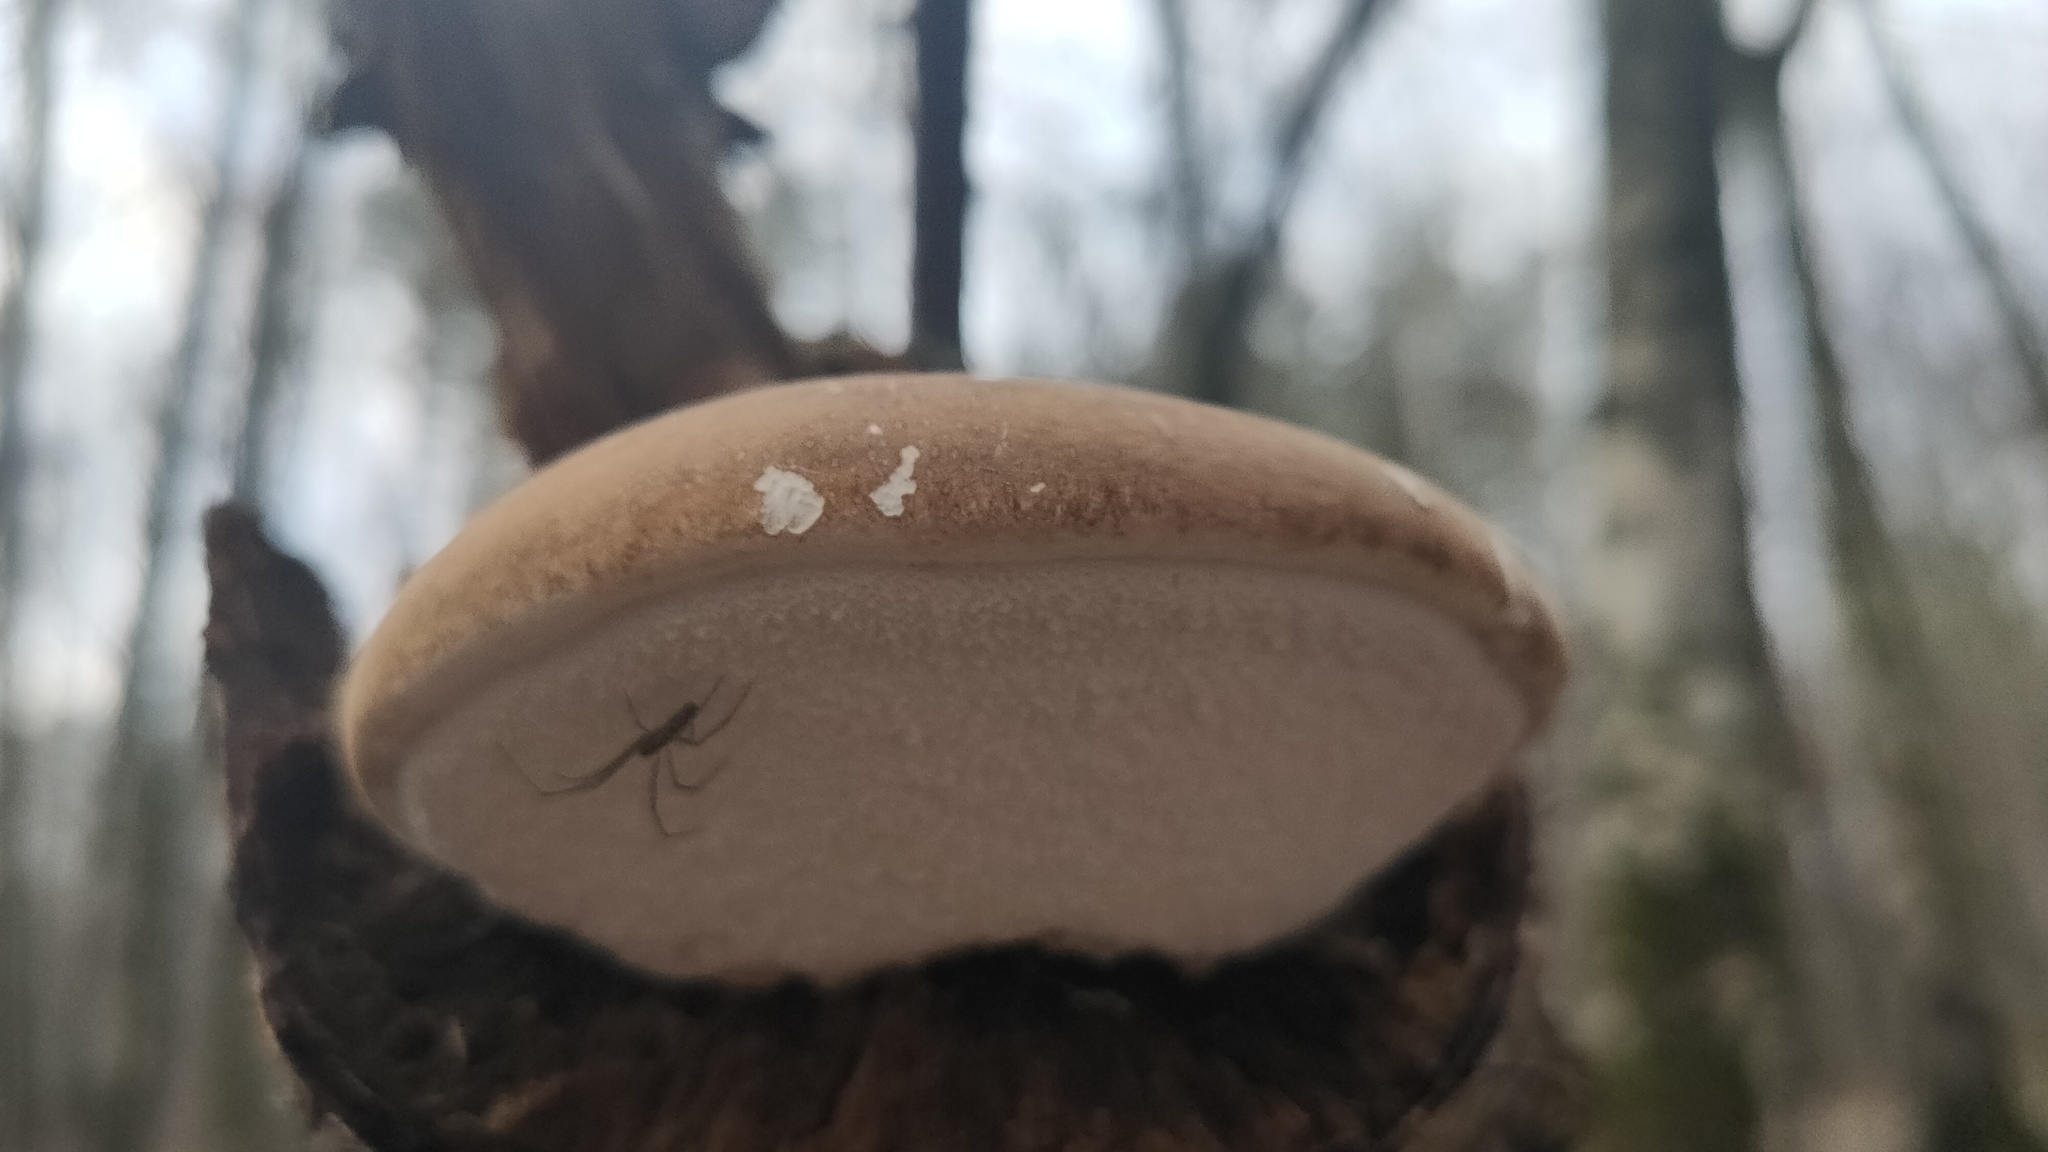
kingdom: Fungi
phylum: Basidiomycota
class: Agaricomycetes
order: Polyporales
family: Fomitopsidaceae
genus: Fomitopsis
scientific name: Fomitopsis betulina
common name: Birch polypore
